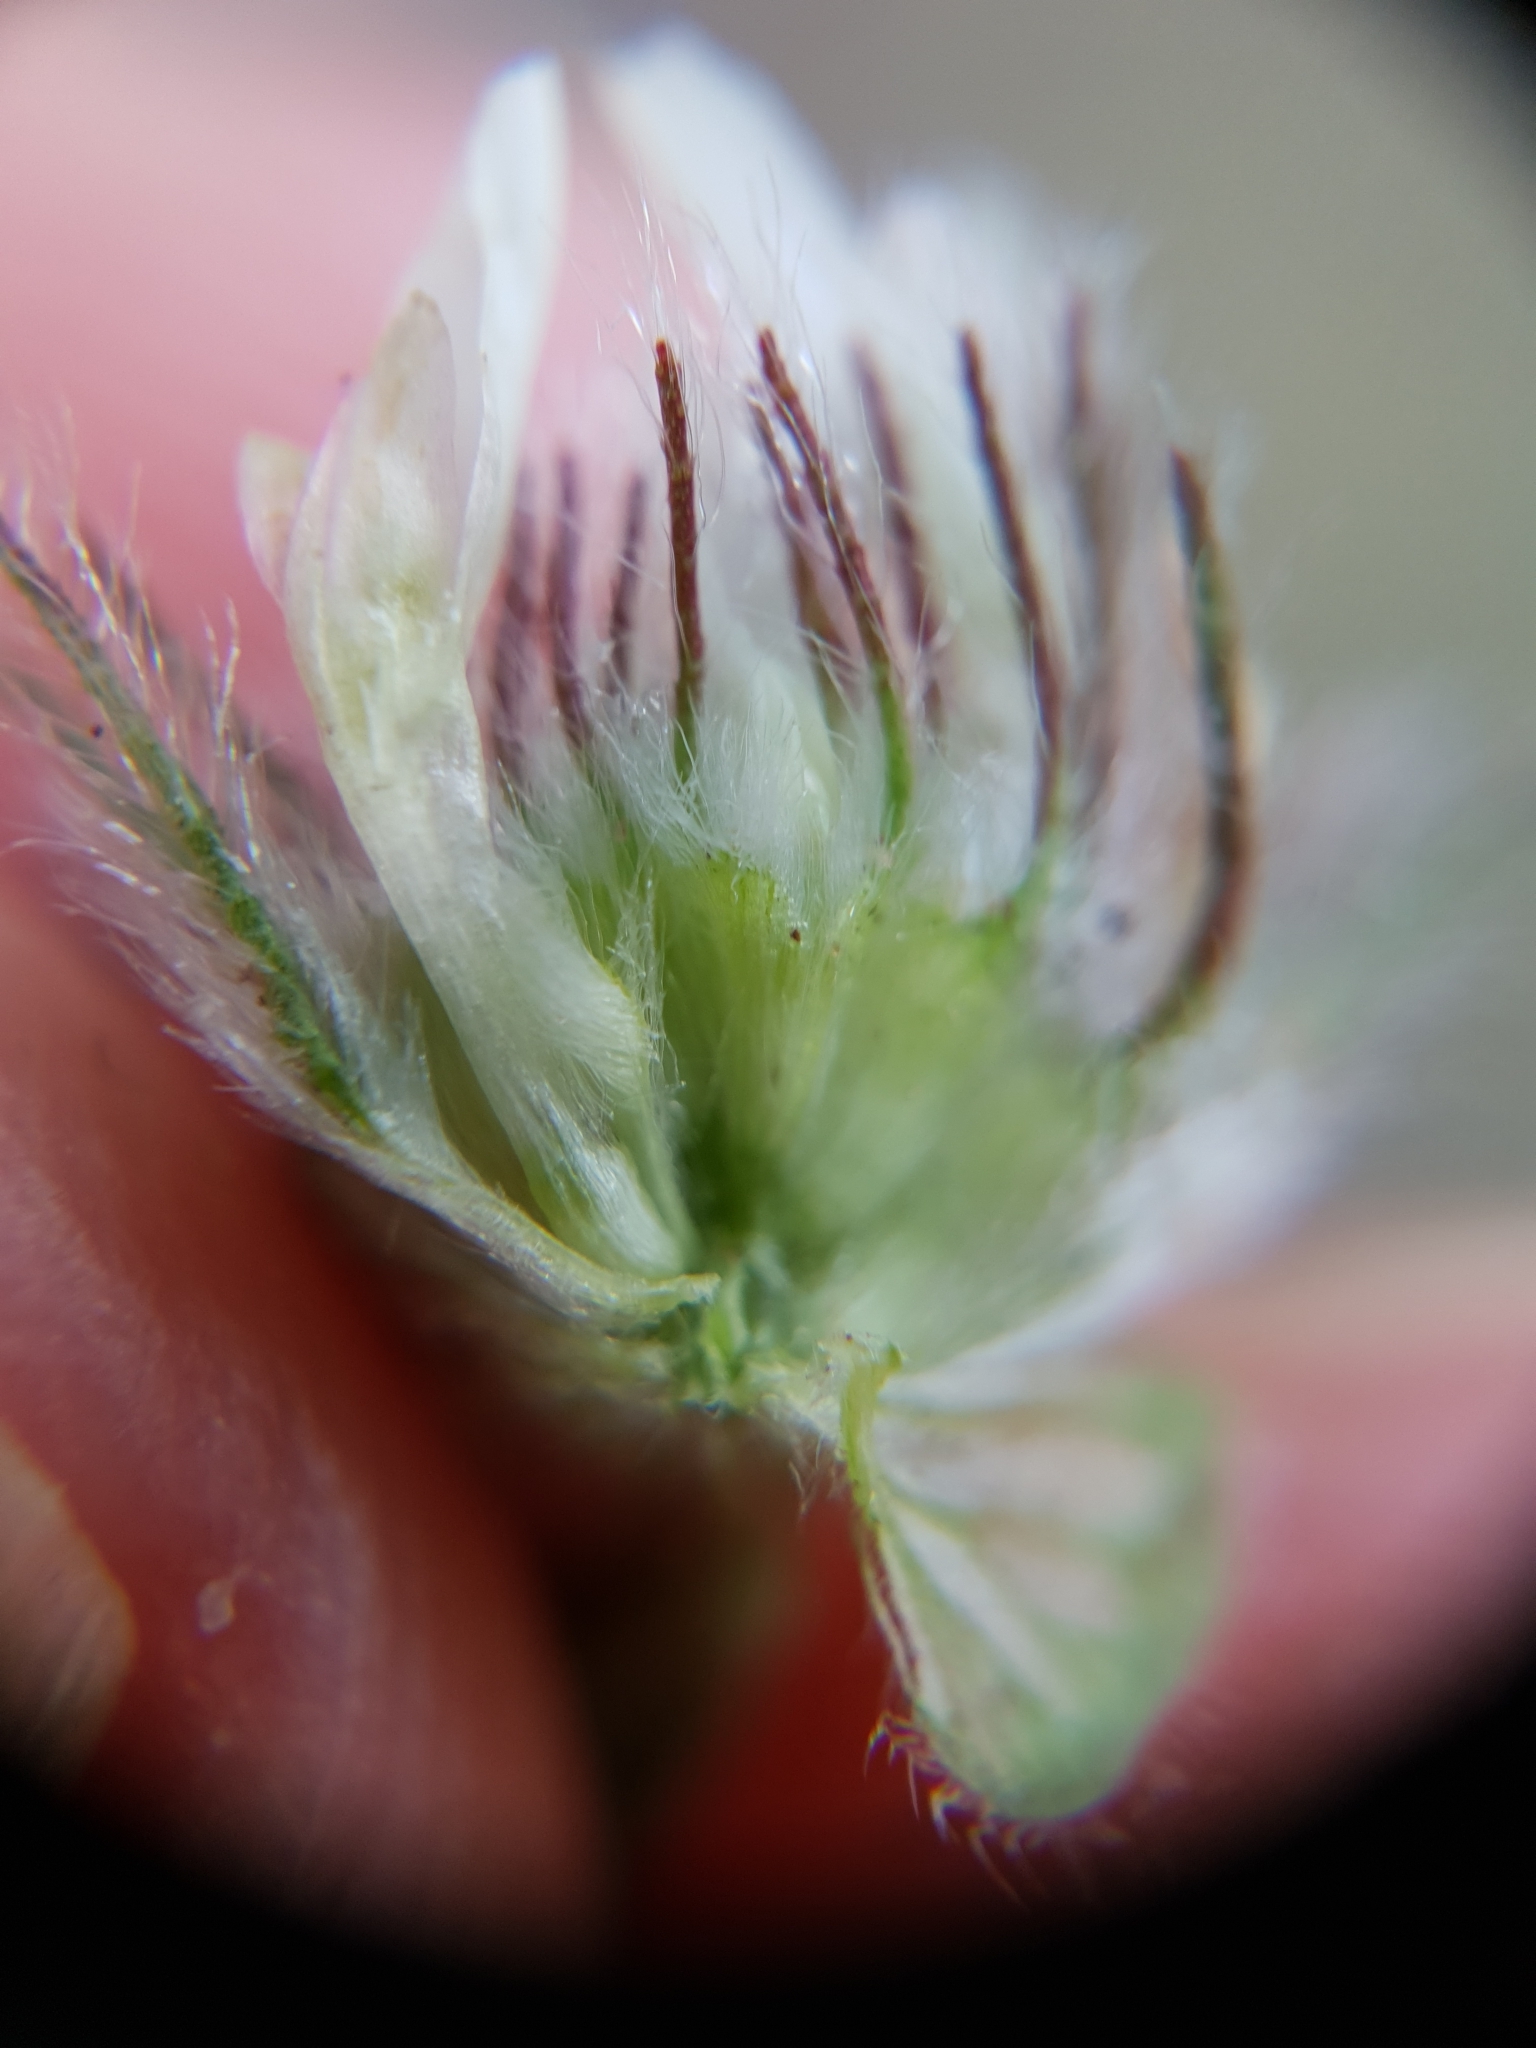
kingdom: Plantae
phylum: Tracheophyta
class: Magnoliopsida
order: Fabales
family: Fabaceae
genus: Trifolium
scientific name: Trifolium cherleri
